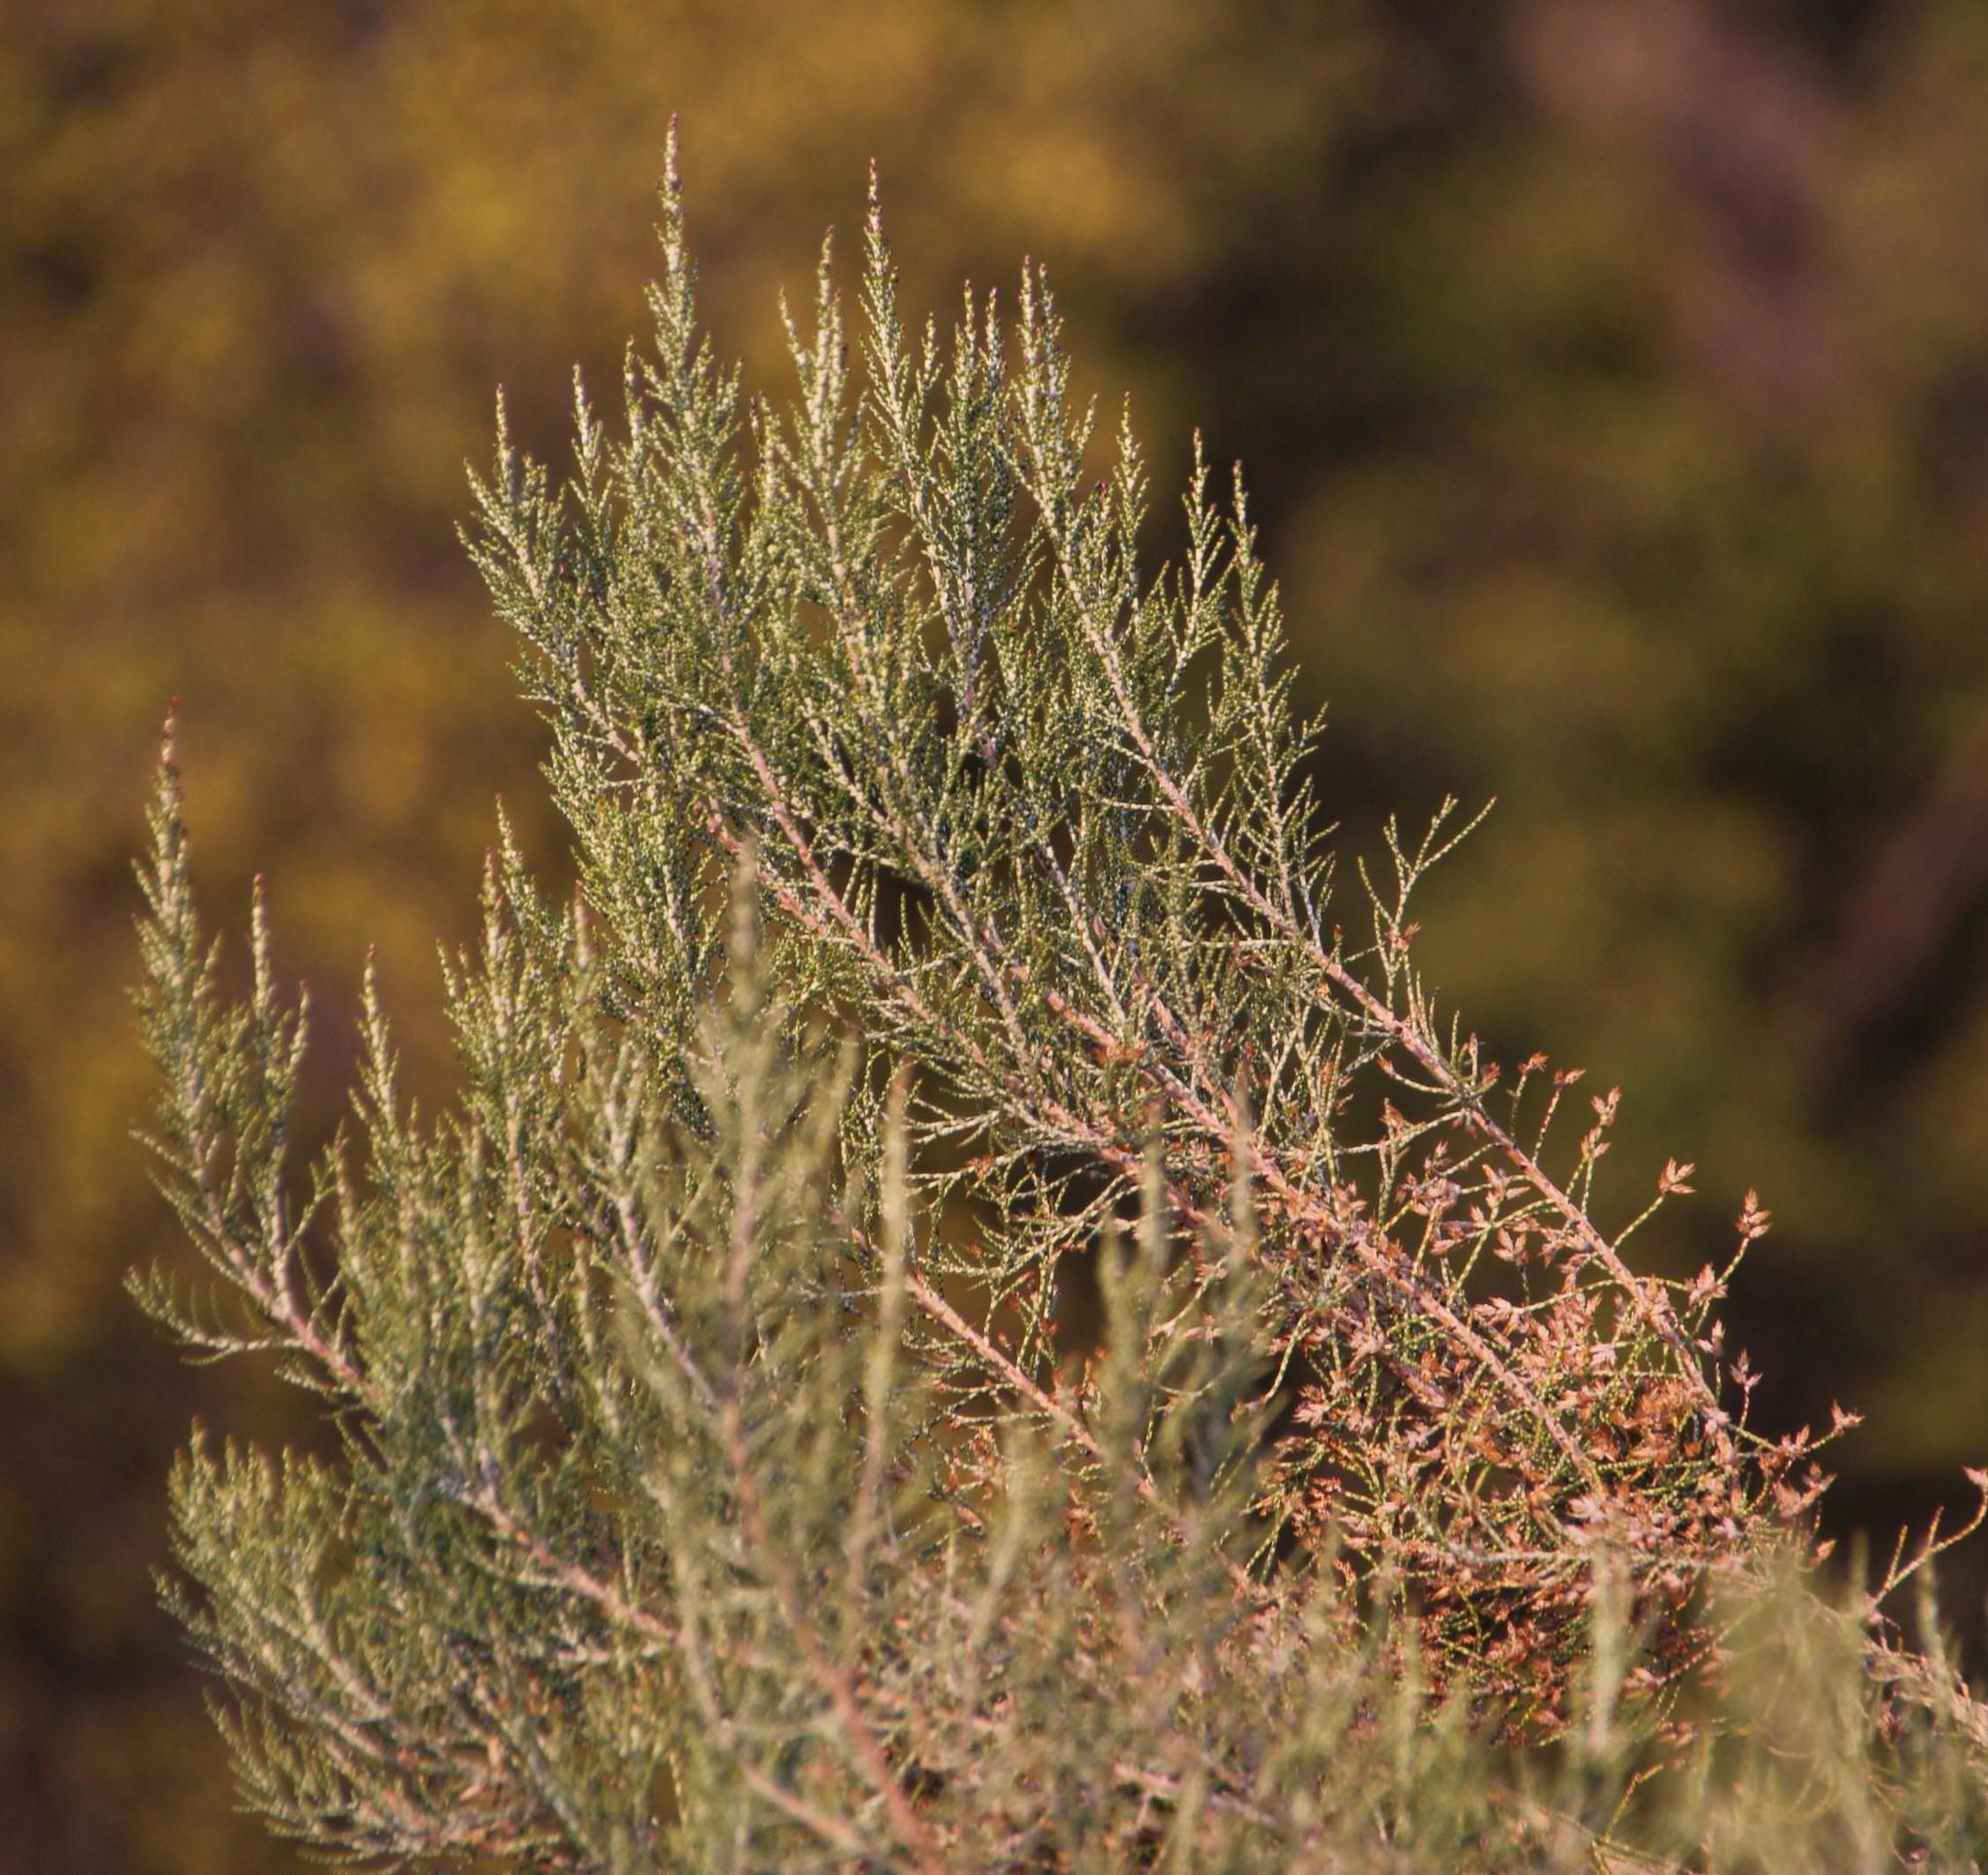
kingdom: Plantae
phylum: Tracheophyta
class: Magnoliopsida
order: Asterales
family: Asteraceae
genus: Dicerothamnus
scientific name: Dicerothamnus rhinocerotis
